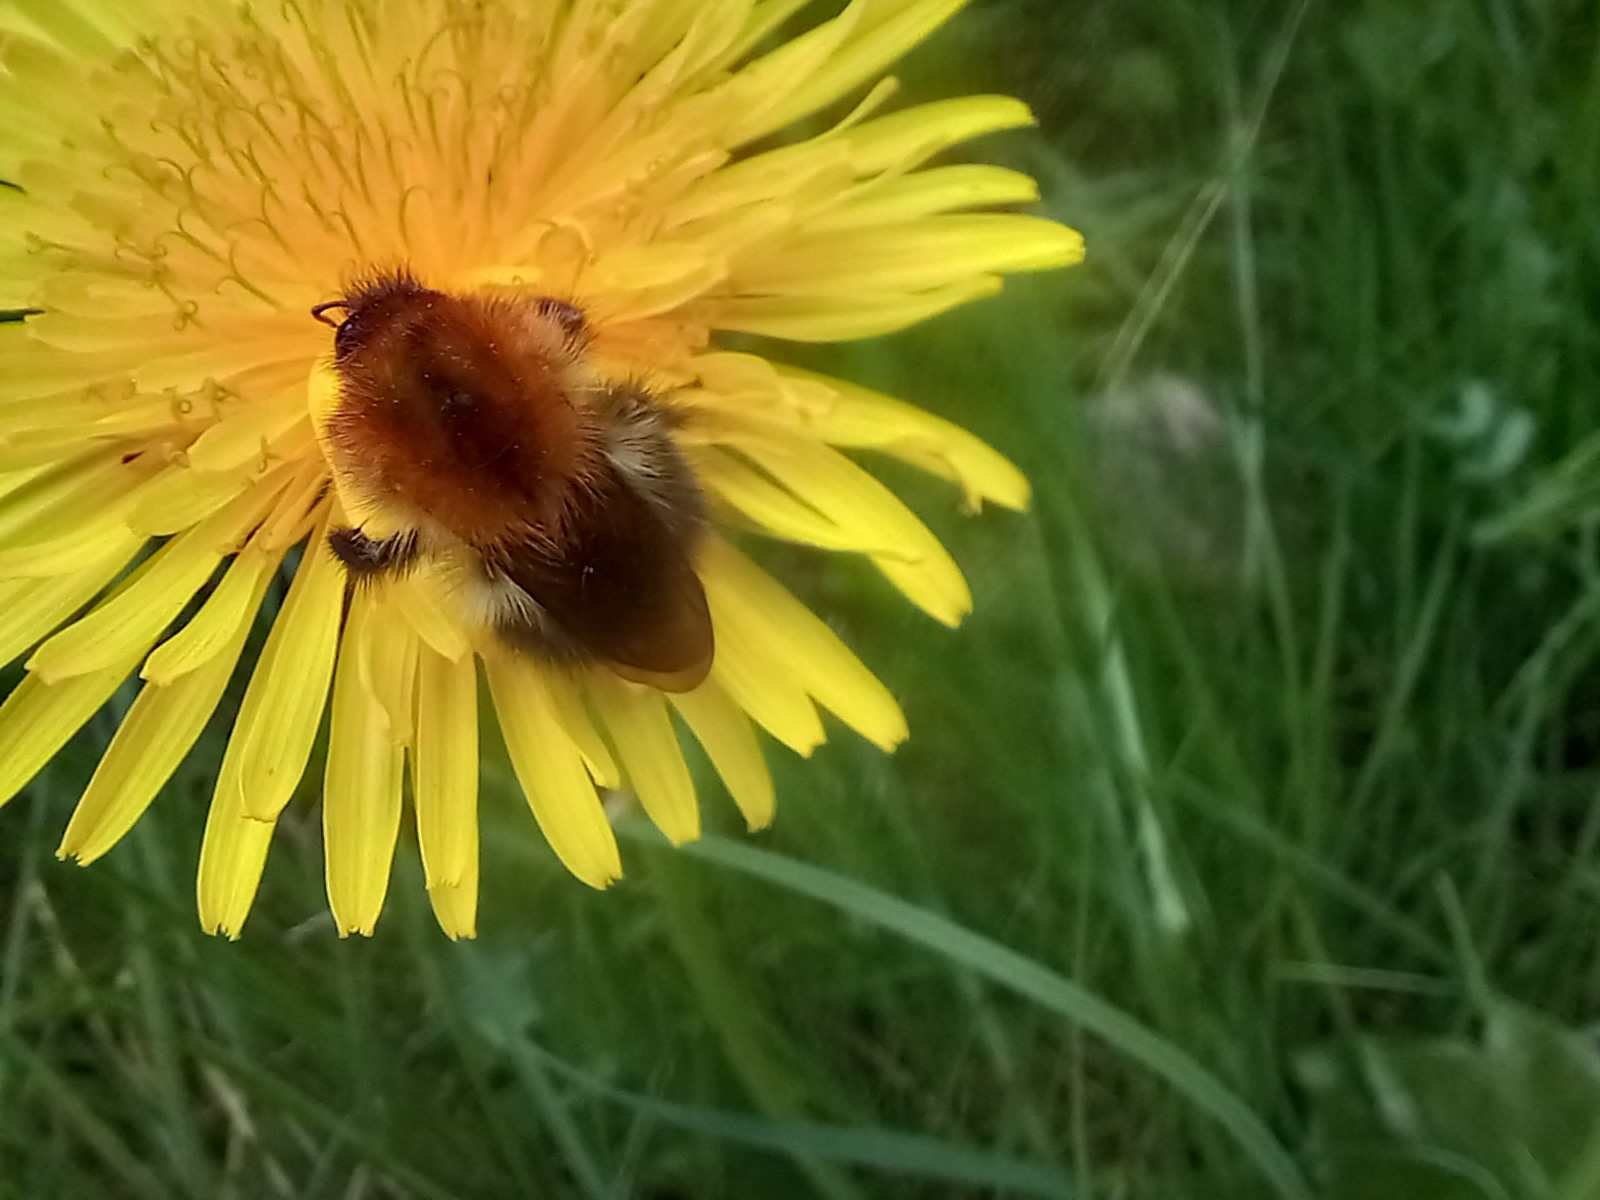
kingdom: Animalia
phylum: Arthropoda
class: Insecta
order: Hymenoptera
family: Apidae
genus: Bombus
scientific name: Bombus pascuorum
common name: Common carder bee
